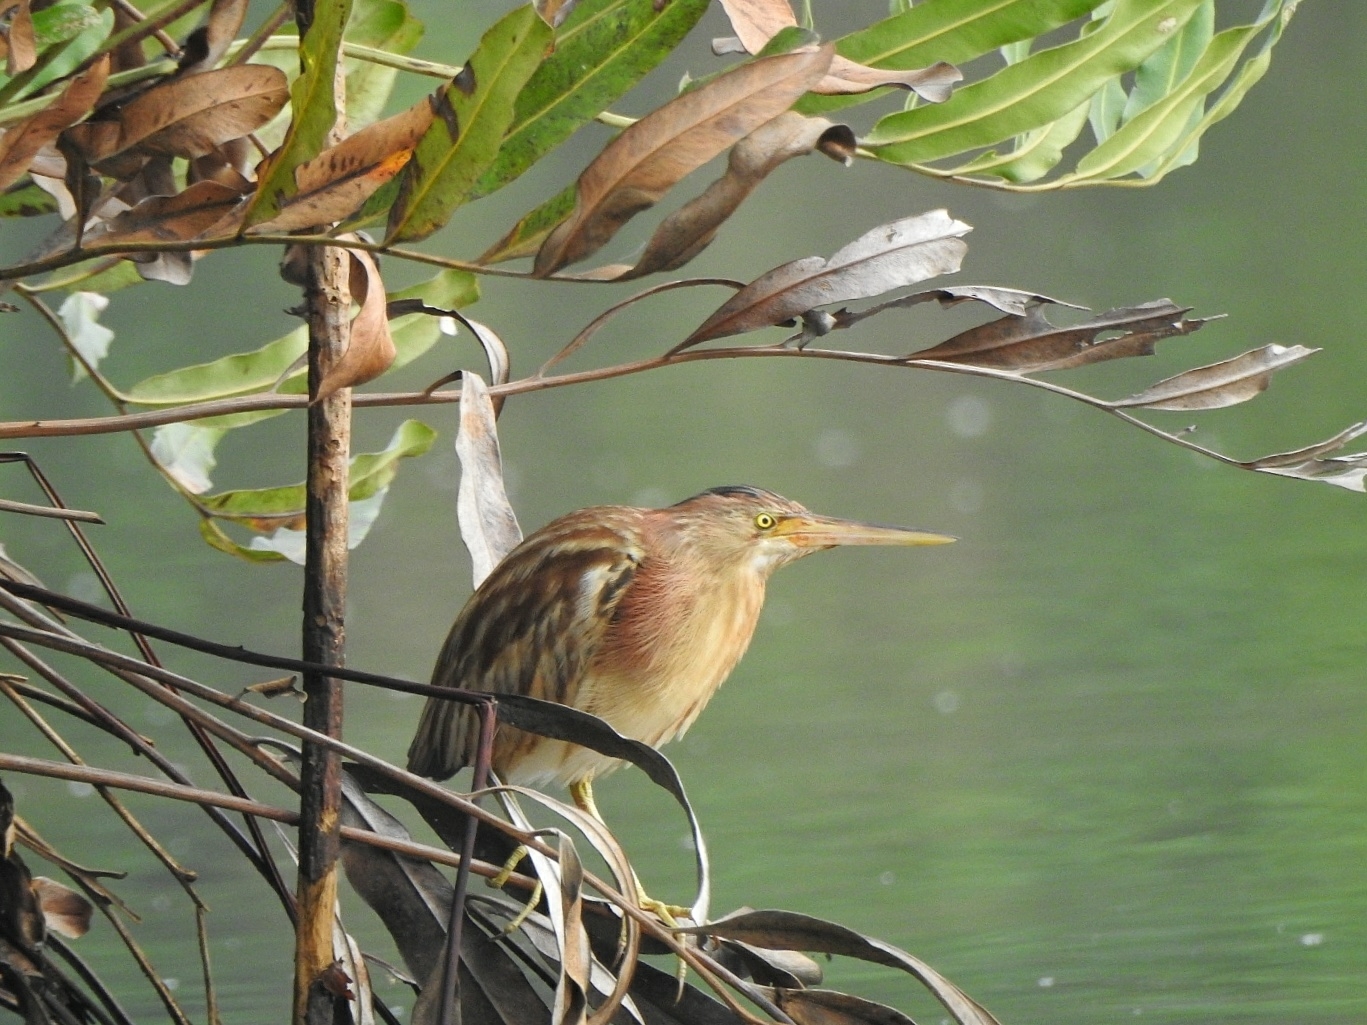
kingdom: Animalia
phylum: Chordata
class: Aves
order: Pelecaniformes
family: Ardeidae
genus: Ixobrychus
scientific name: Ixobrychus sinensis
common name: Yellow bittern
